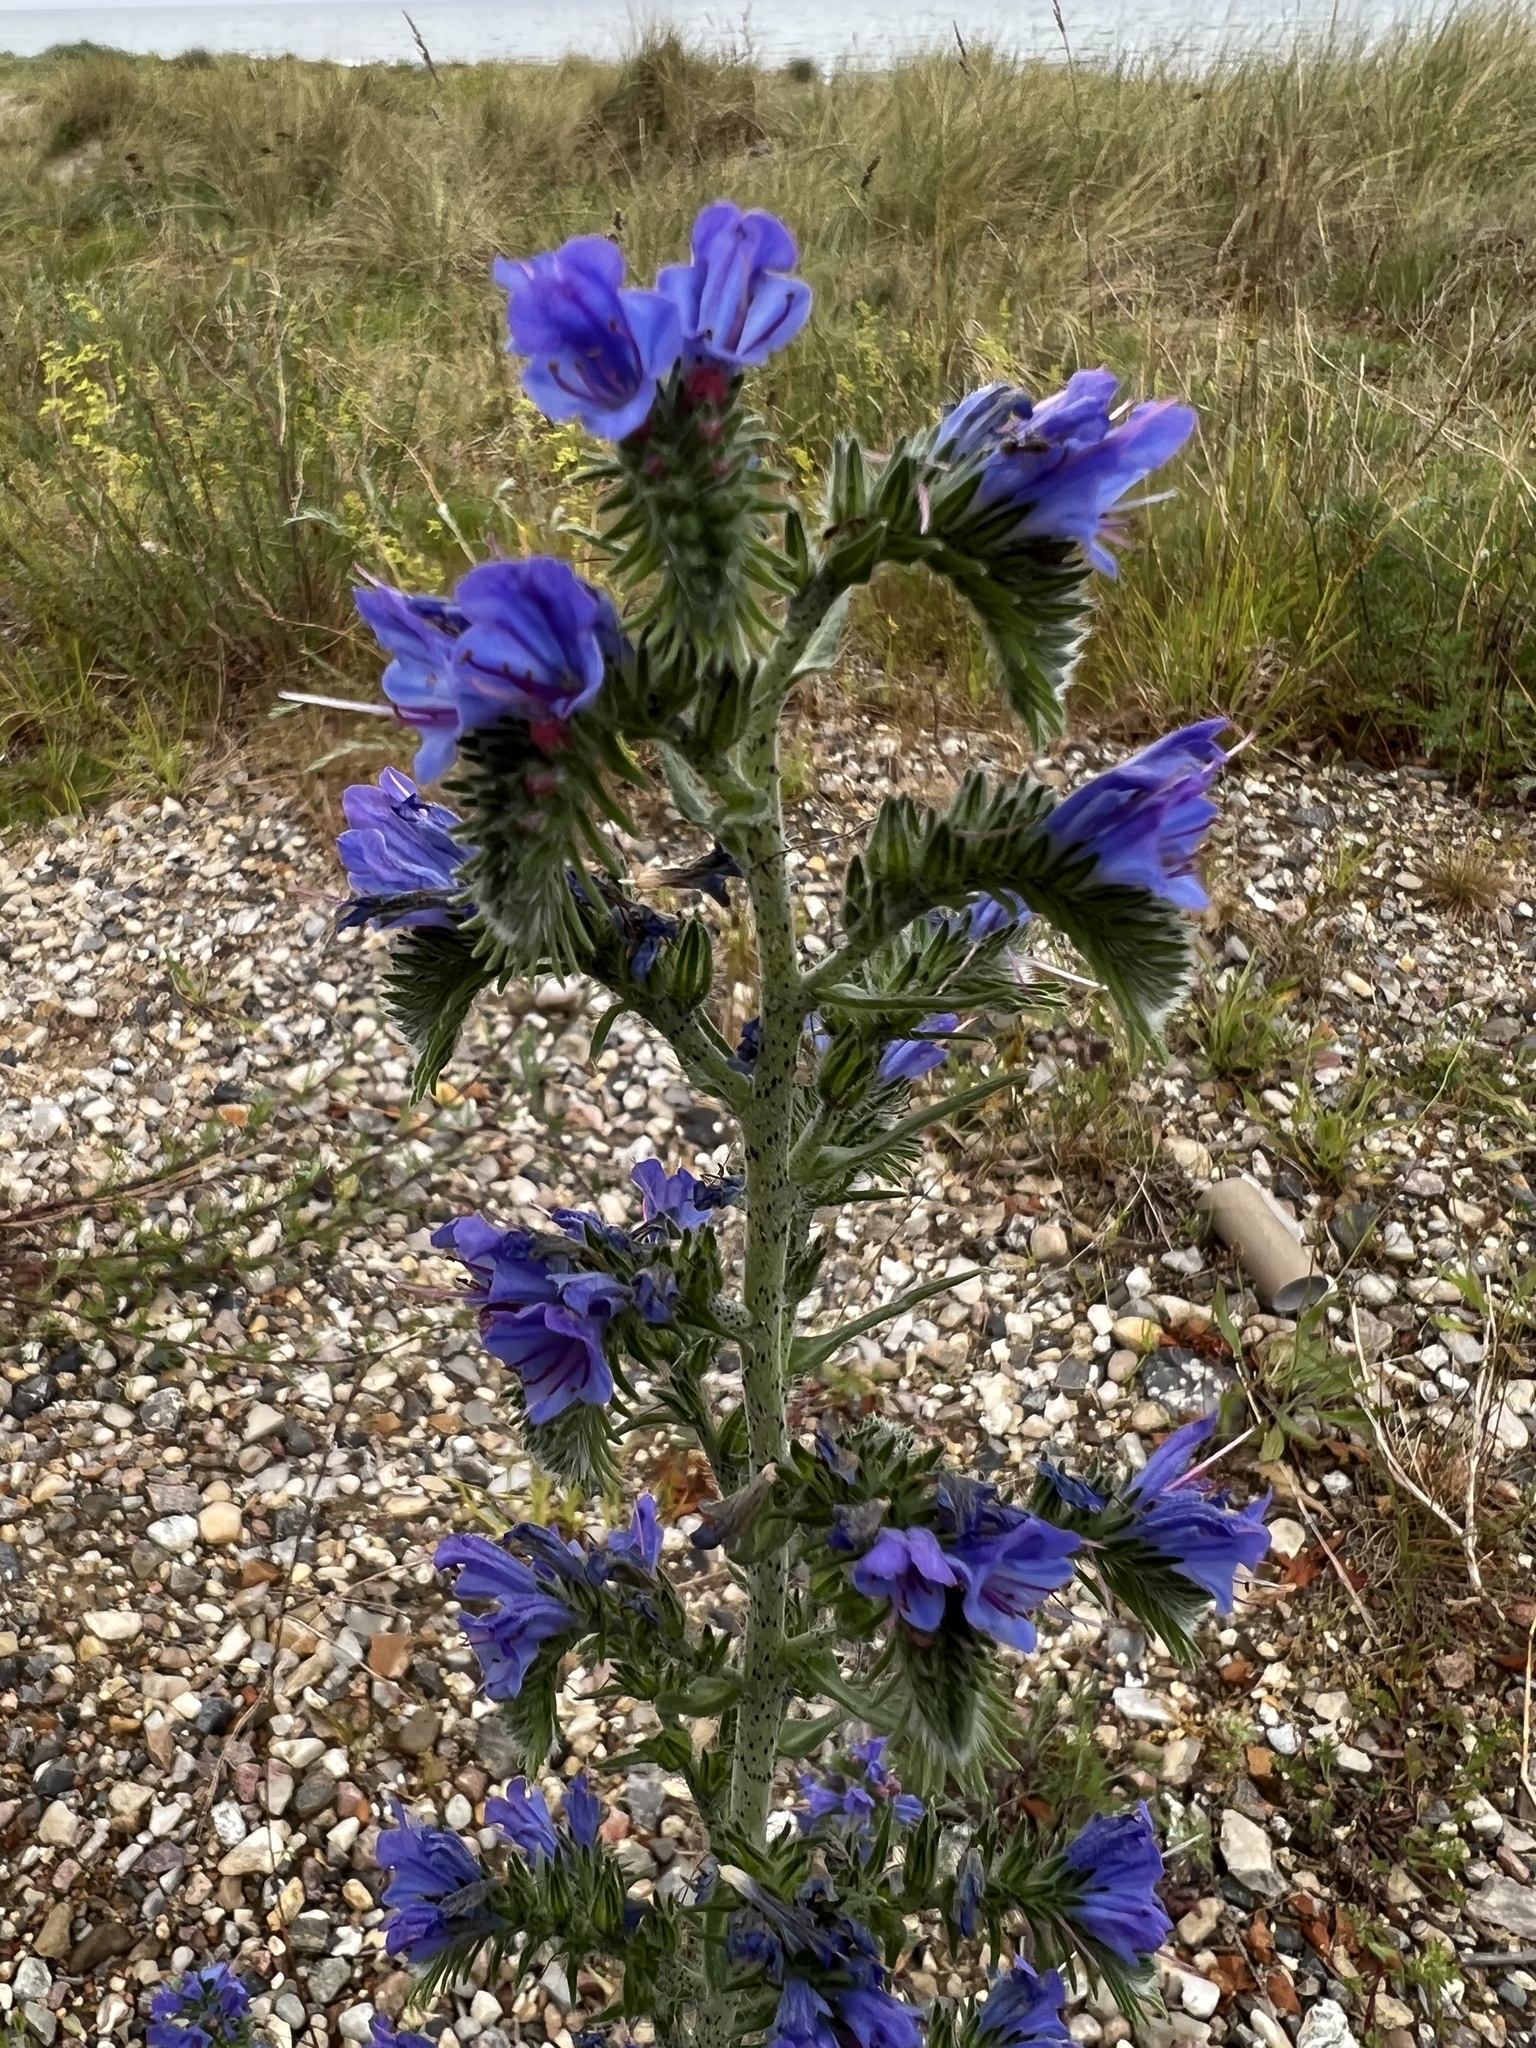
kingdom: Plantae
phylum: Tracheophyta
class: Magnoliopsida
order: Boraginales
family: Boraginaceae
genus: Echium
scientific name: Echium vulgare
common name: Common viper's bugloss
